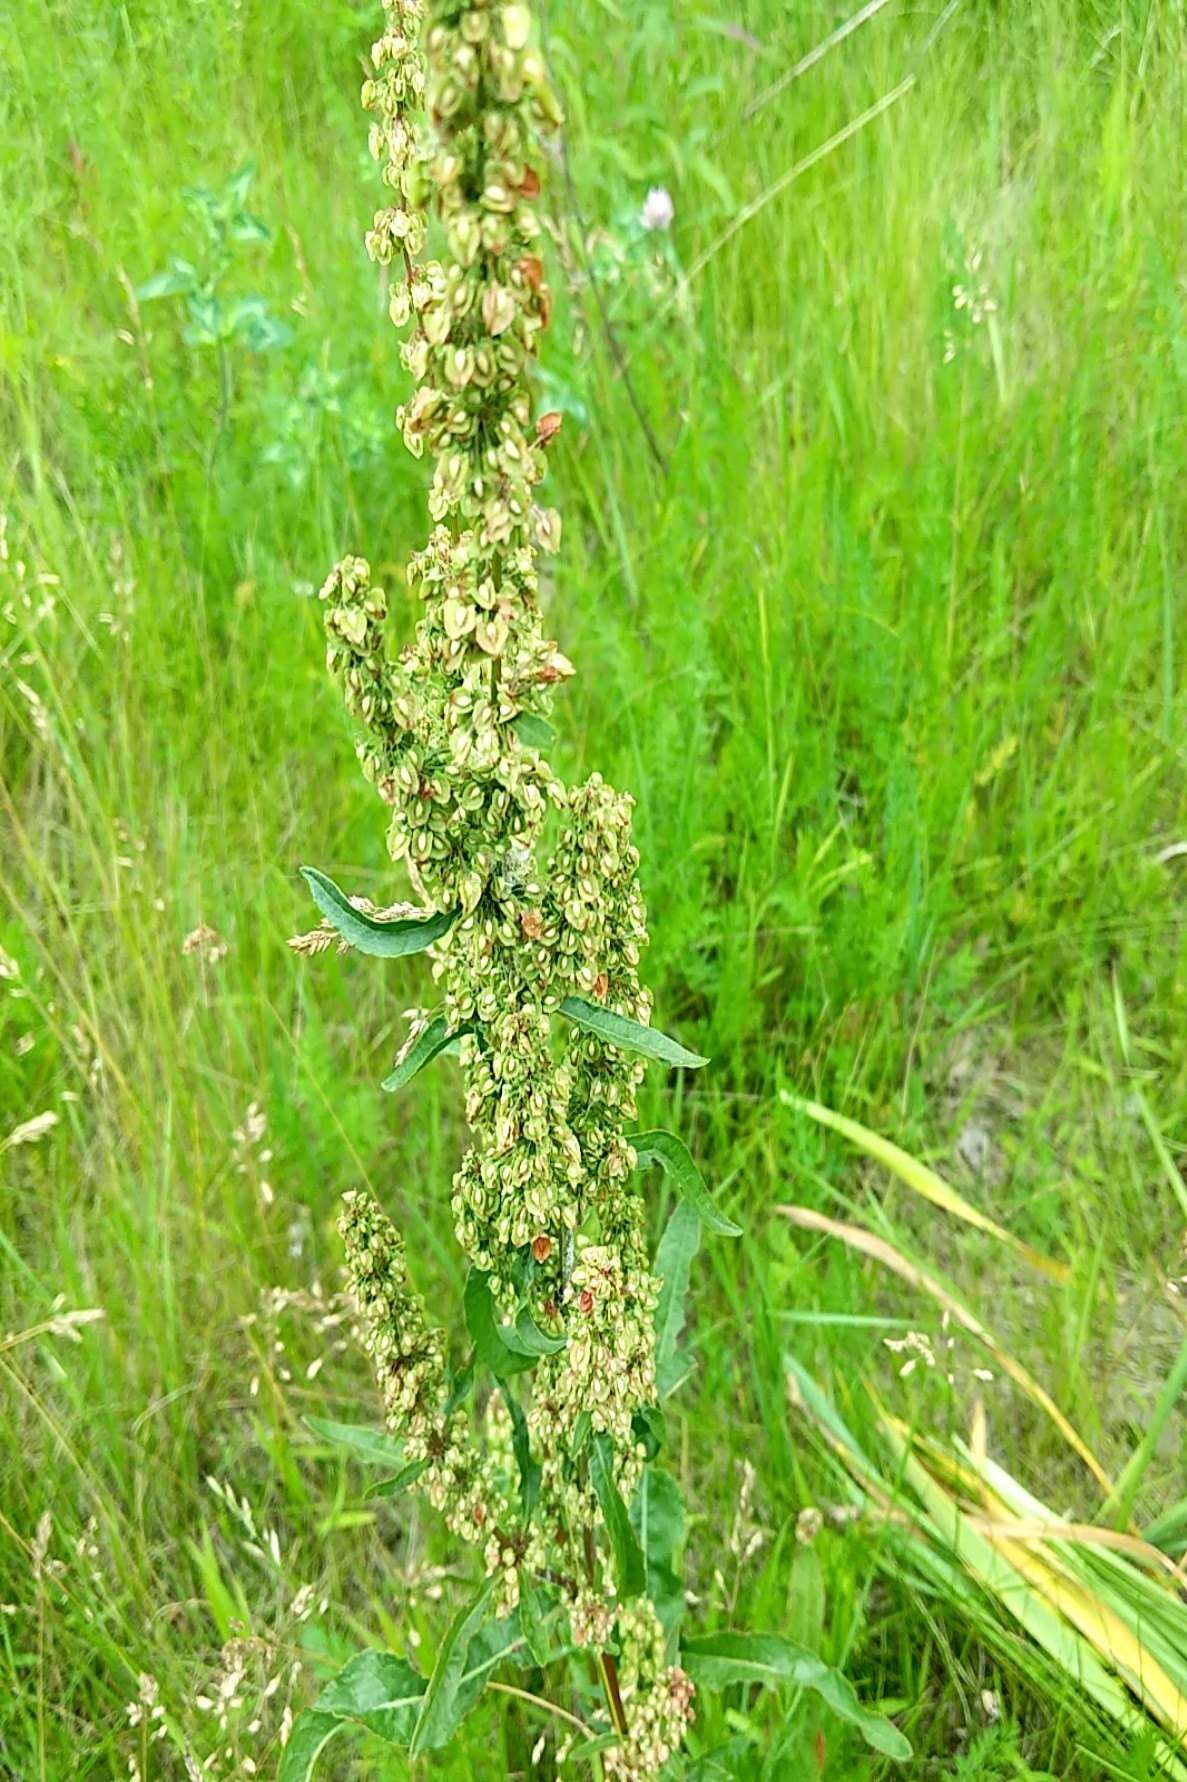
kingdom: Plantae
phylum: Tracheophyta
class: Magnoliopsida
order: Caryophyllales
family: Polygonaceae
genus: Rumex
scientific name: Rumex crispus
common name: Curled dock
